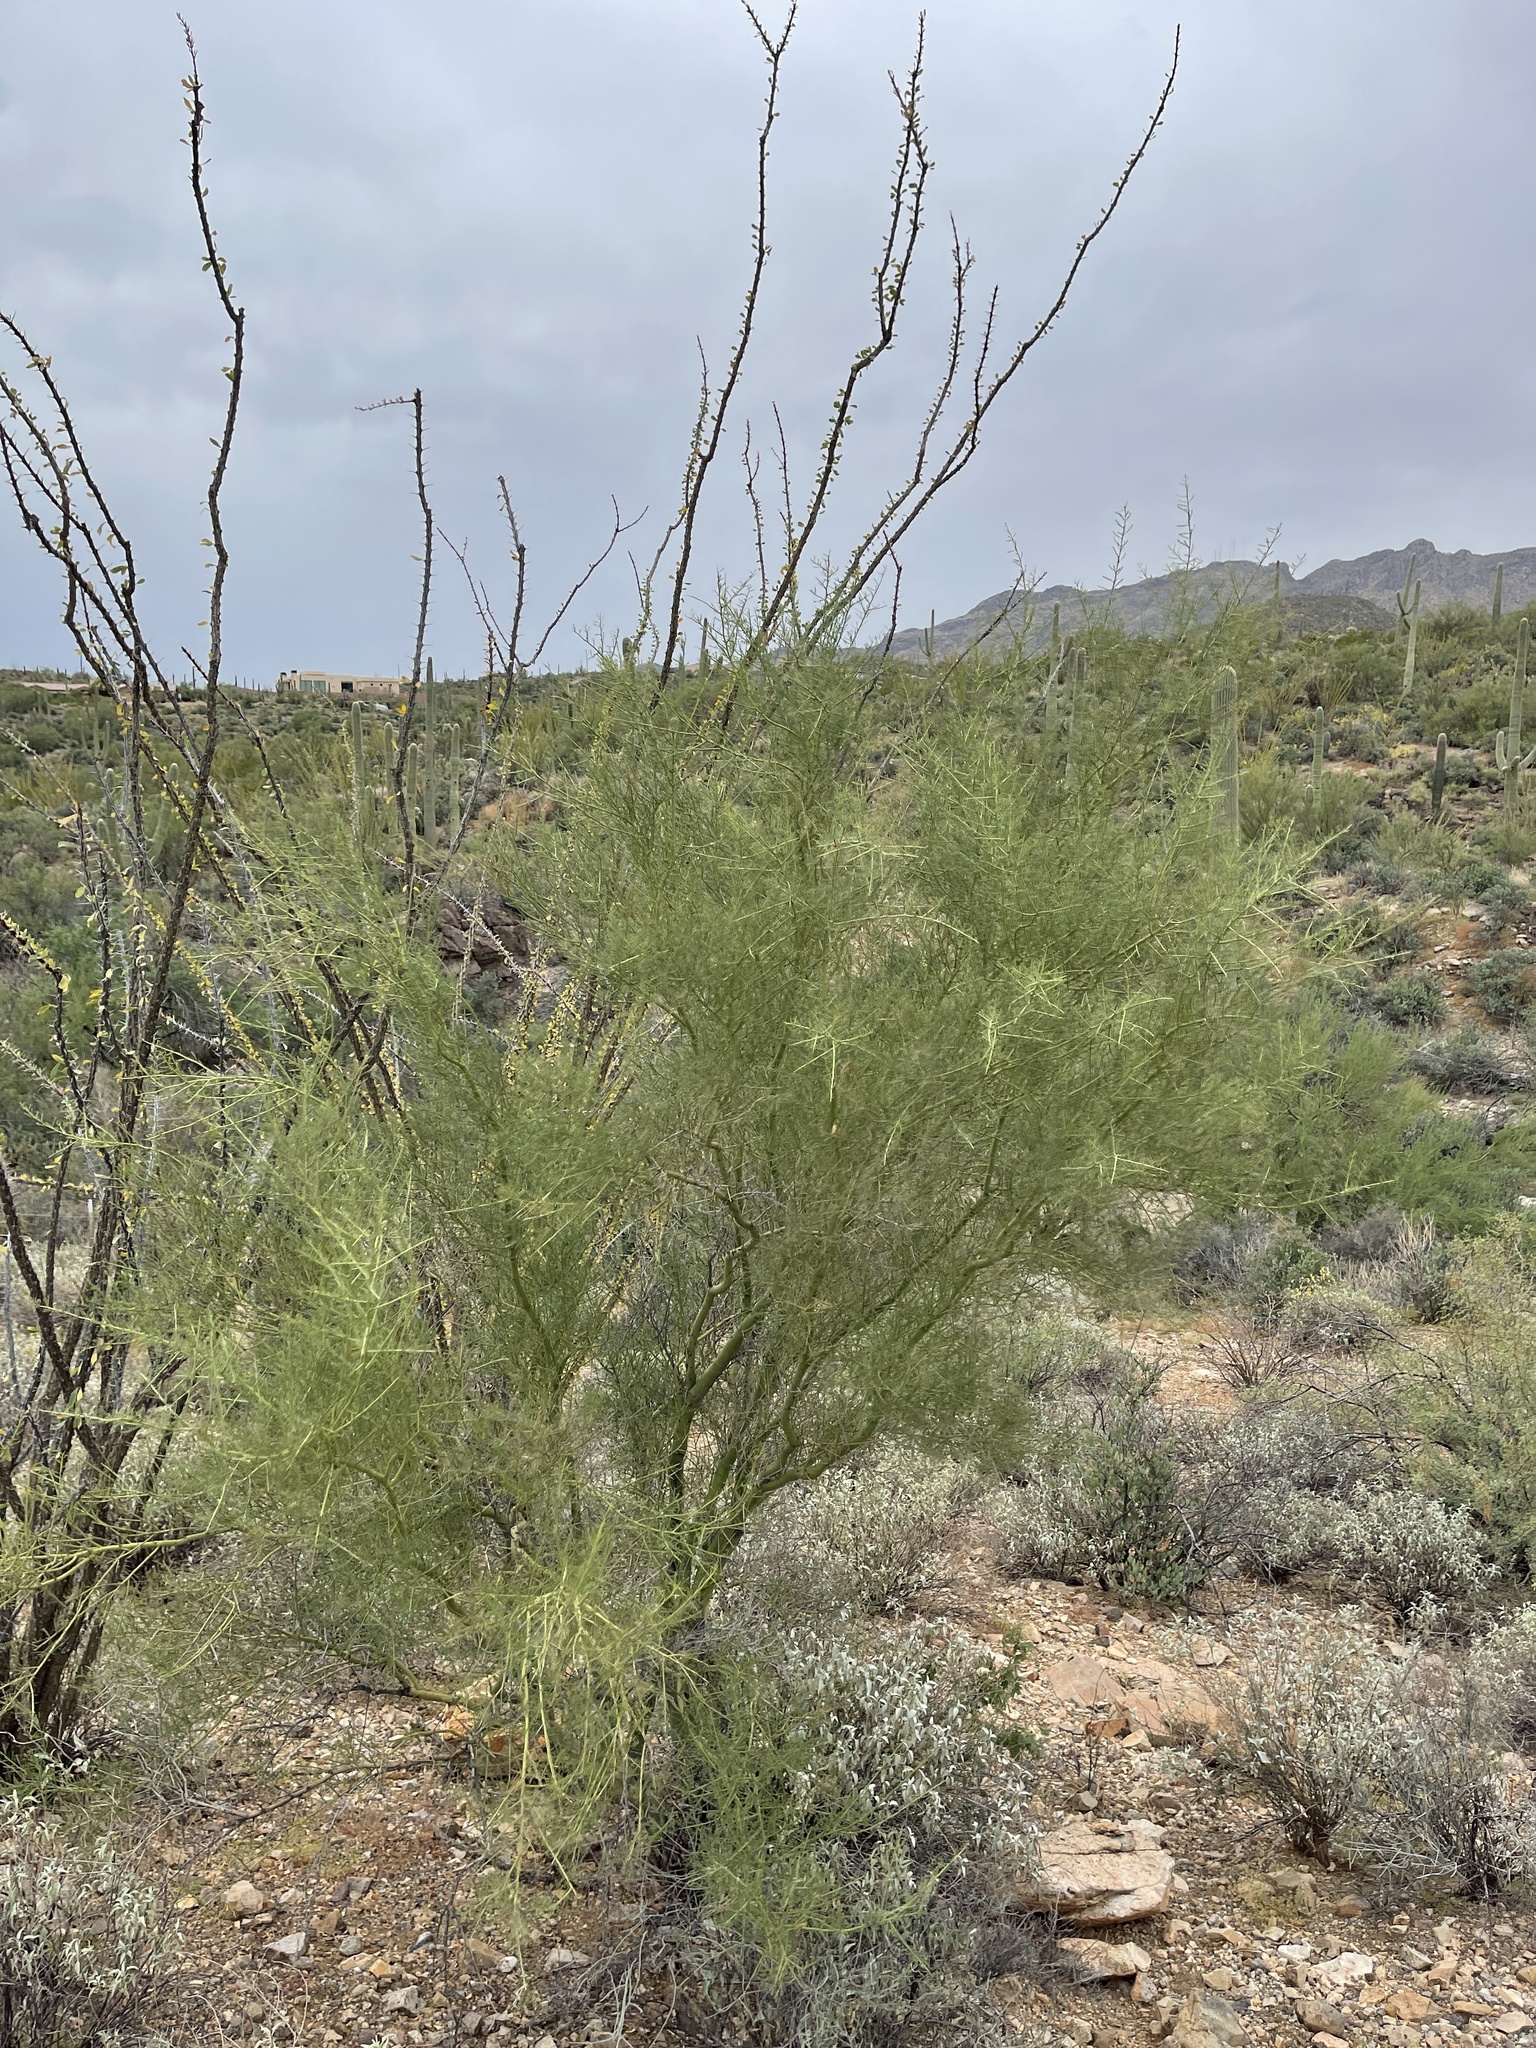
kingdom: Plantae
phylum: Tracheophyta
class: Magnoliopsida
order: Fabales
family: Fabaceae
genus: Parkinsonia
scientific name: Parkinsonia microphylla
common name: Yellow paloverde
